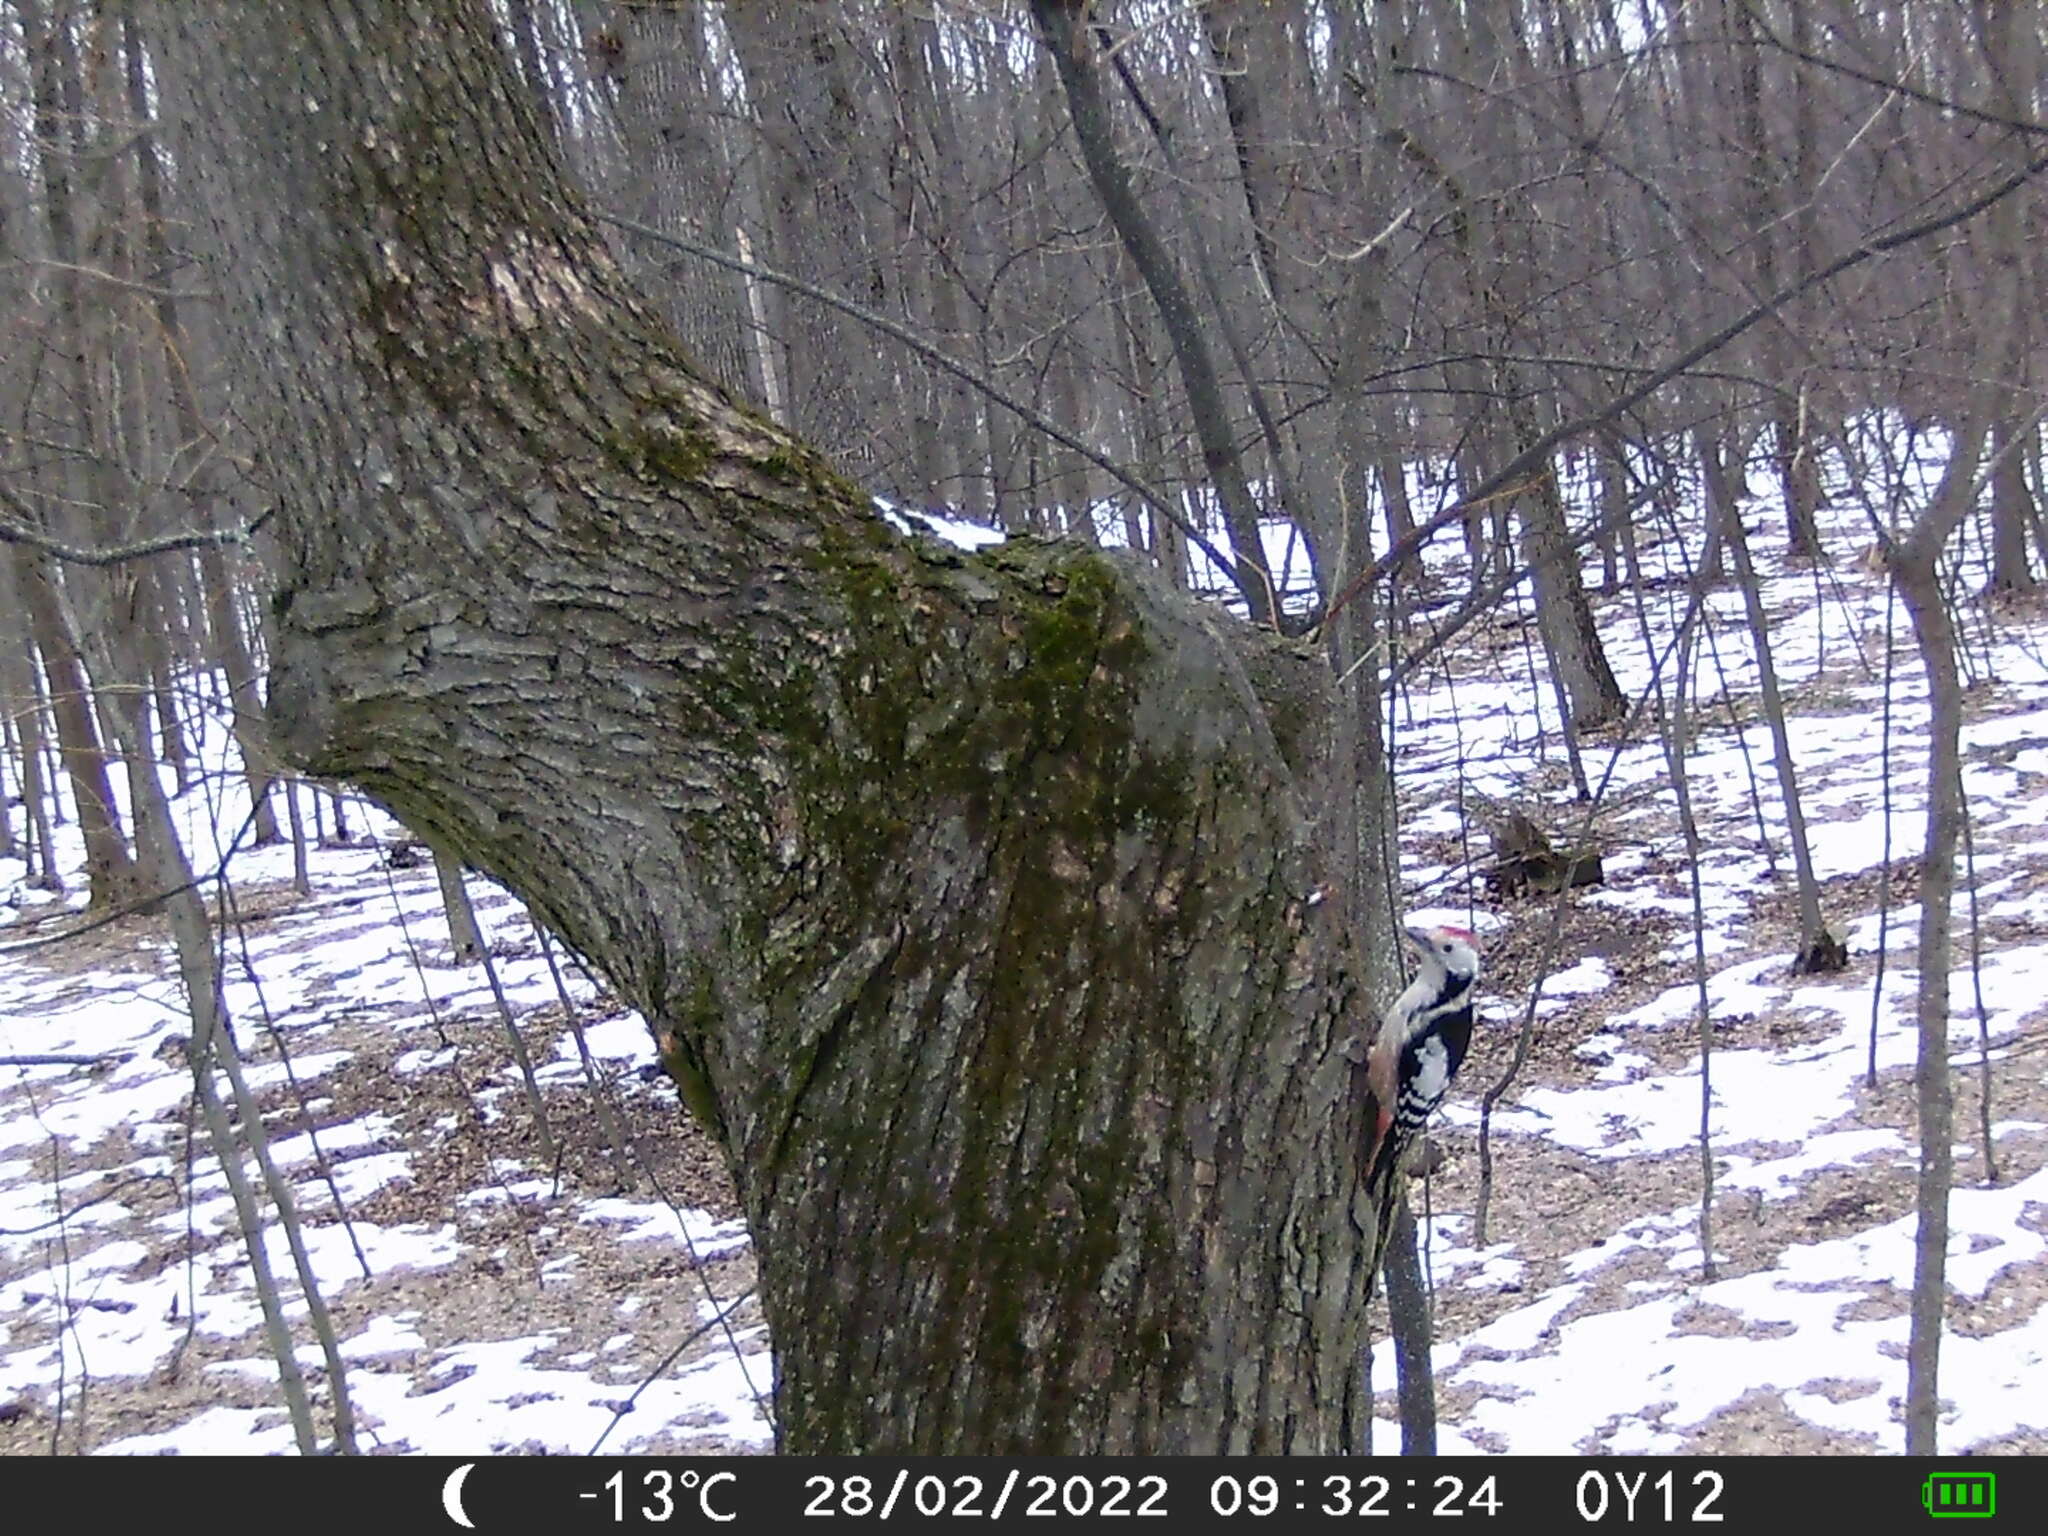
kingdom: Animalia
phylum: Chordata
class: Aves
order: Piciformes
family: Picidae
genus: Dendrocoptes
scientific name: Dendrocoptes medius
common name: Middle spotted woodpecker
